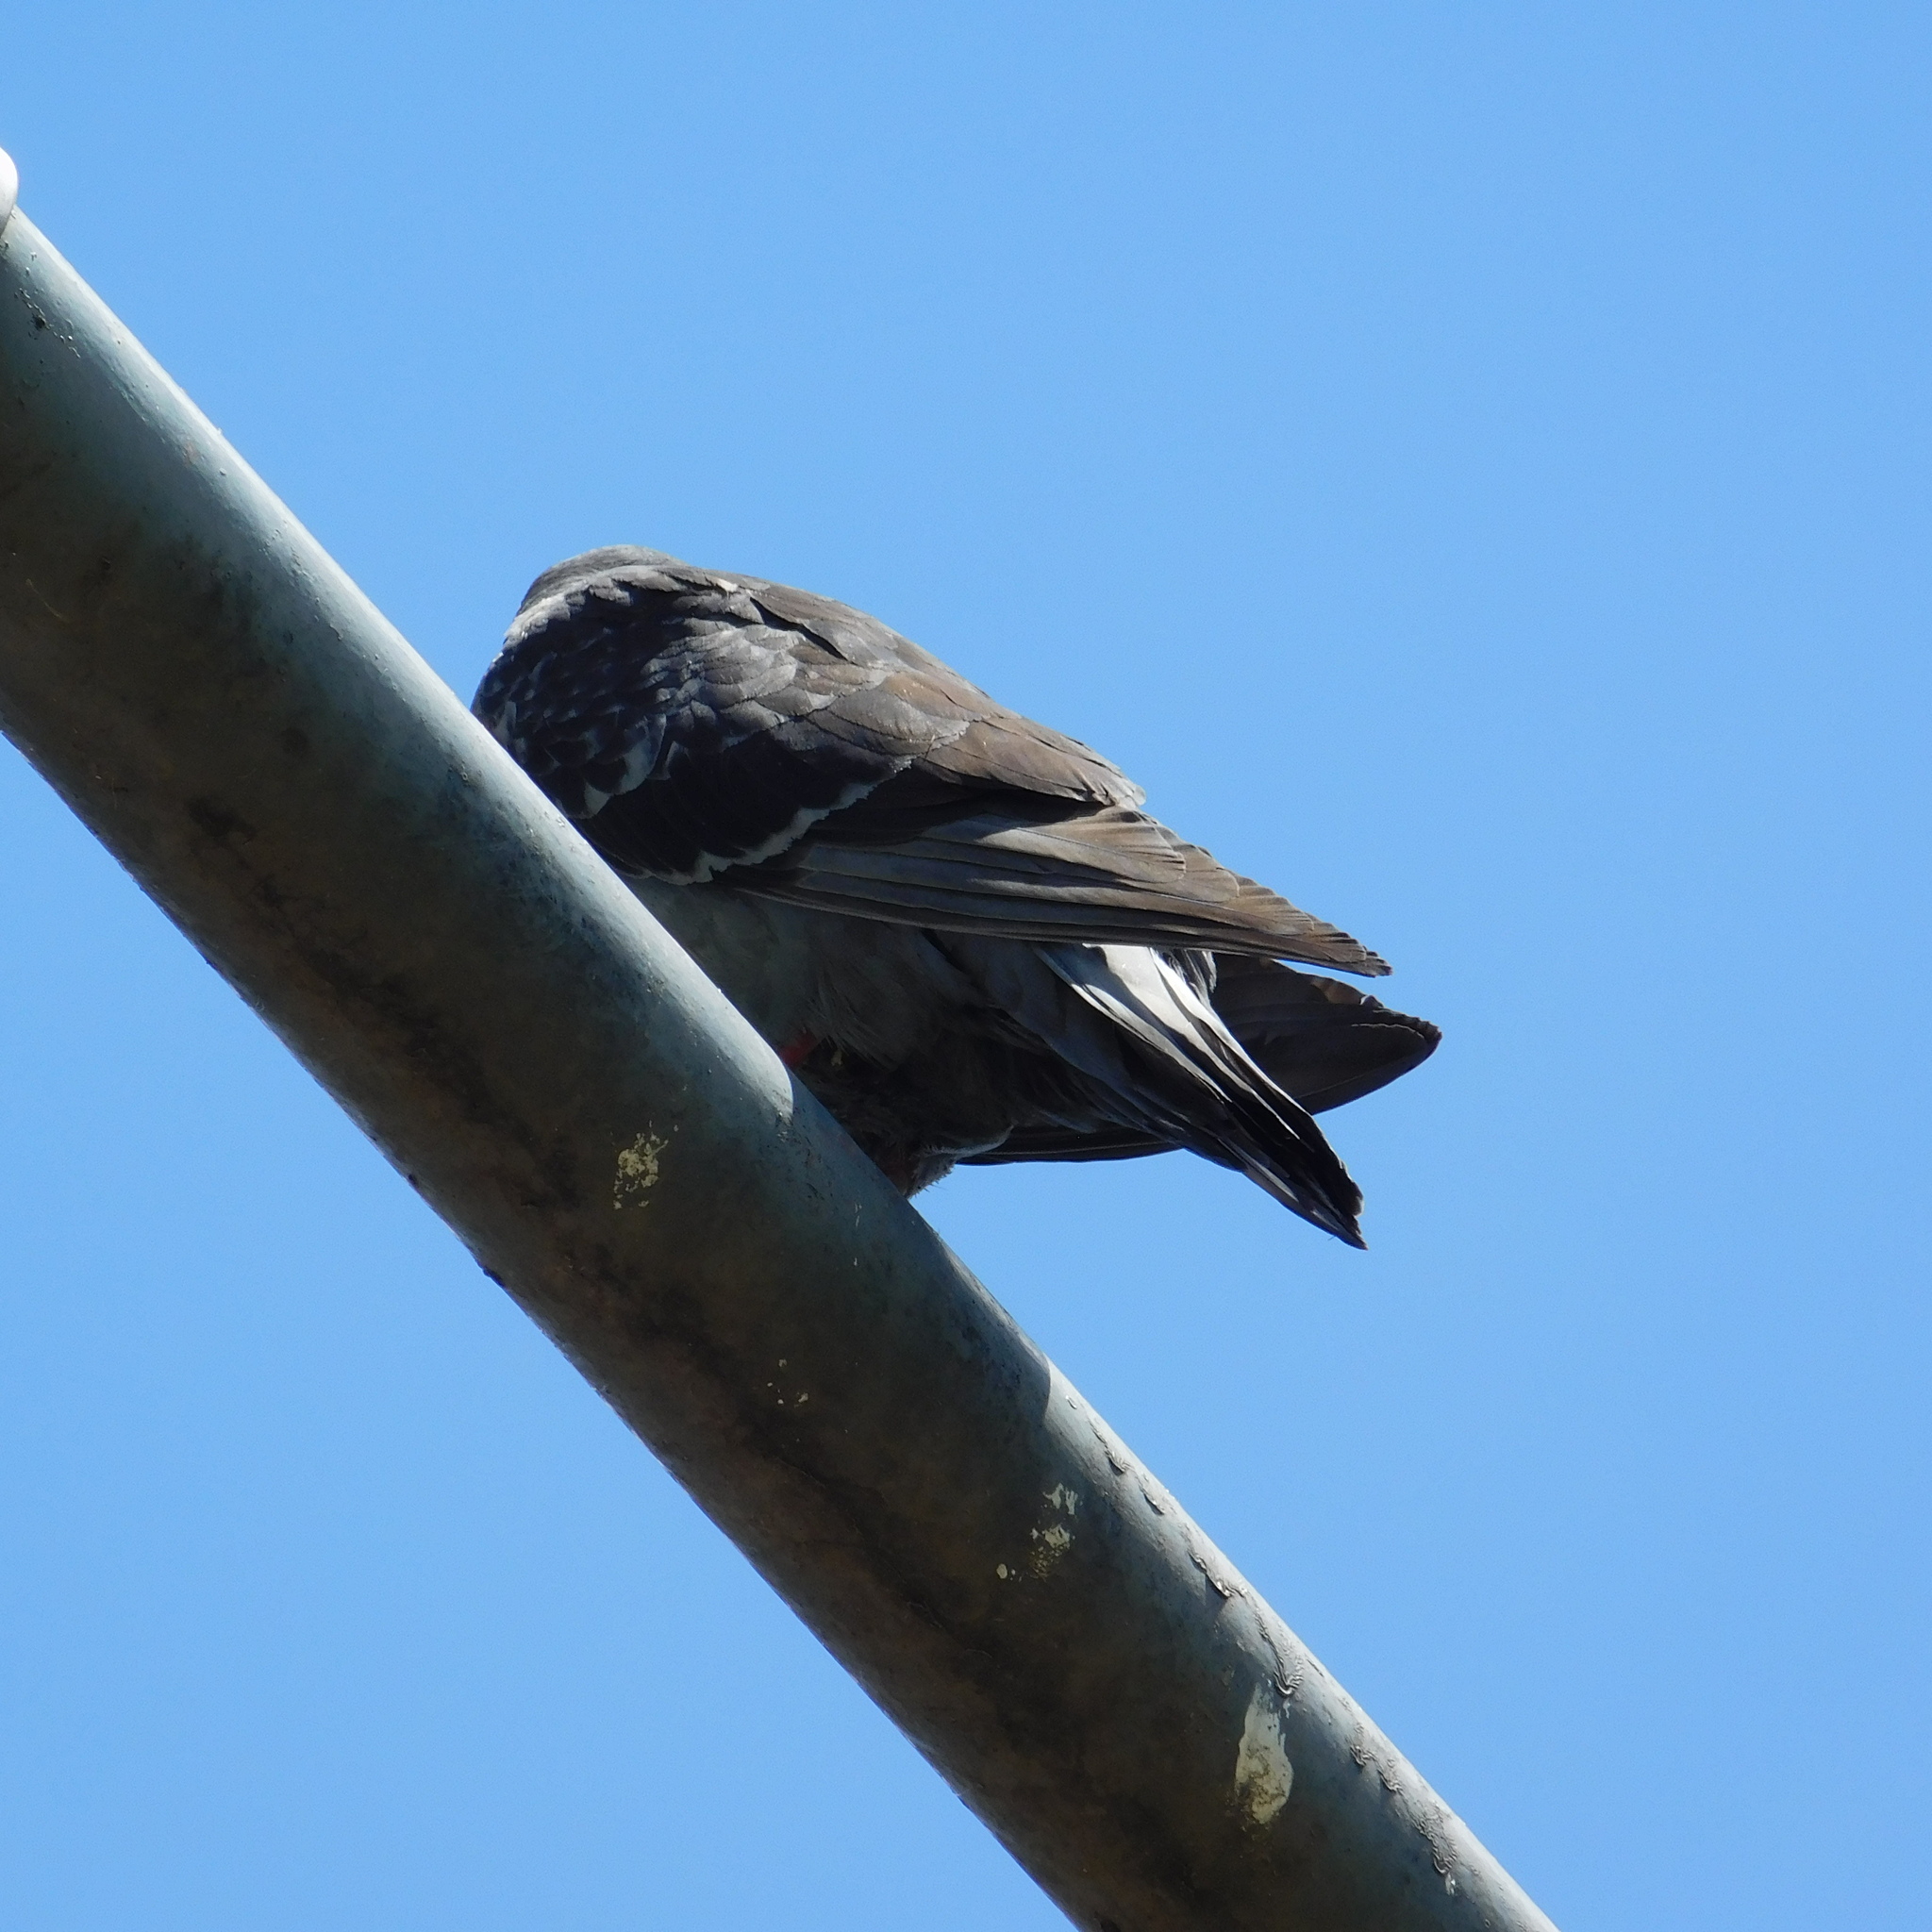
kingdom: Animalia
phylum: Chordata
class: Aves
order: Columbiformes
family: Columbidae
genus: Columba
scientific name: Columba livia
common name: Rock pigeon
